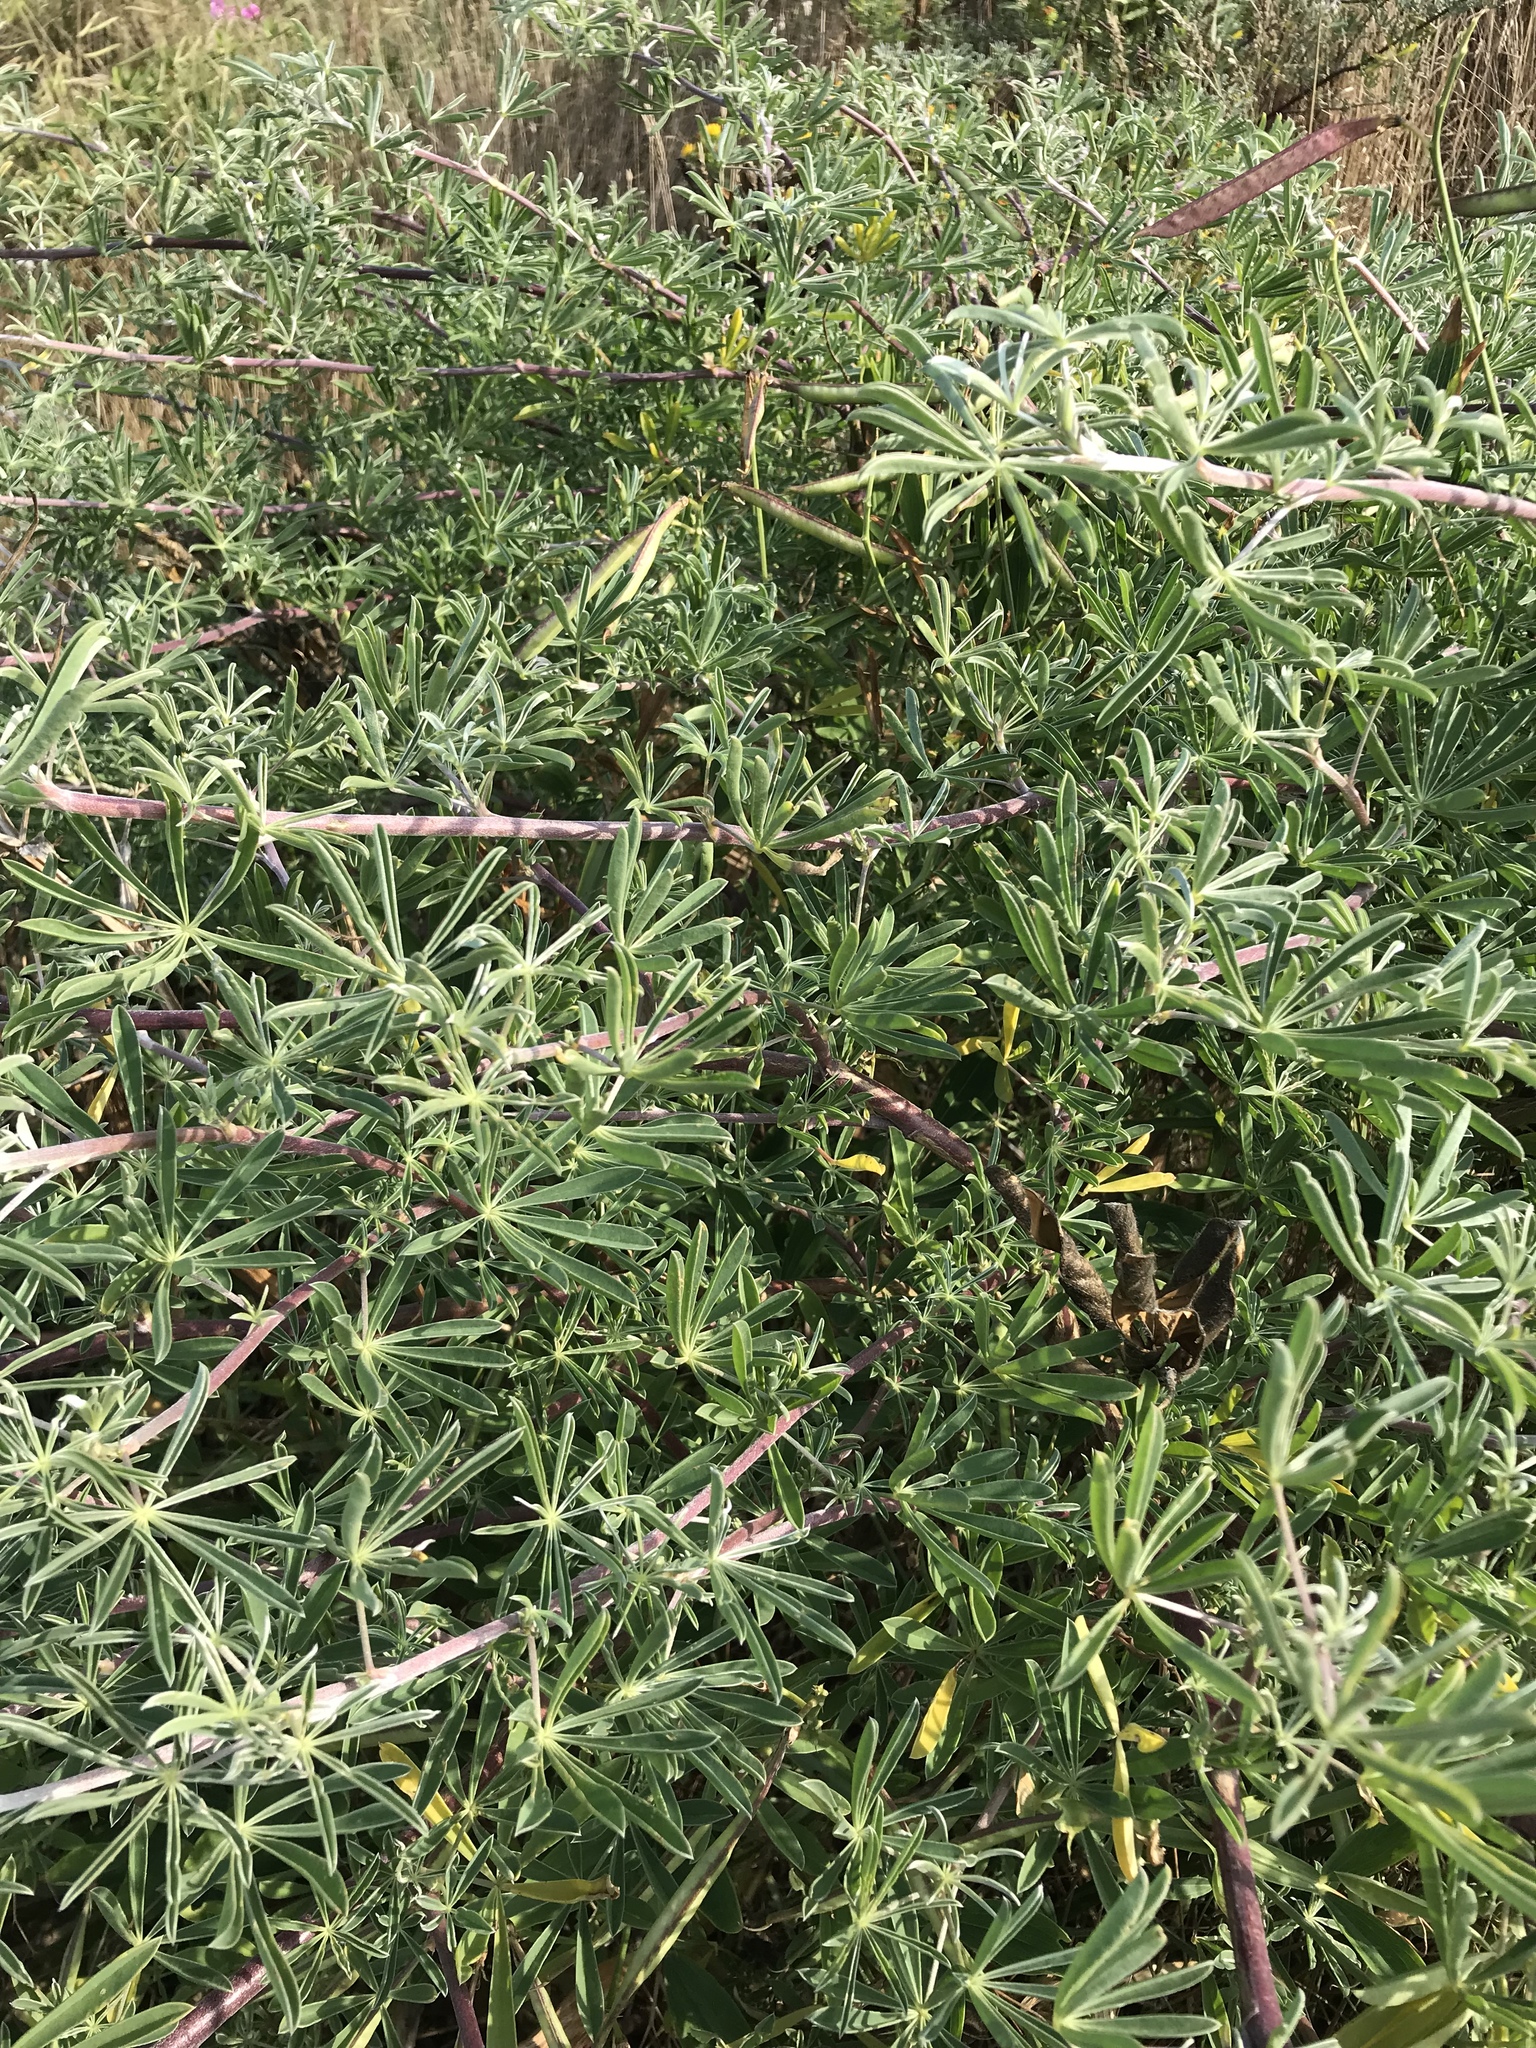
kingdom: Plantae
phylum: Tracheophyta
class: Magnoliopsida
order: Fabales
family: Fabaceae
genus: Lupinus
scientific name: Lupinus arboreus
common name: Yellow bush lupine
